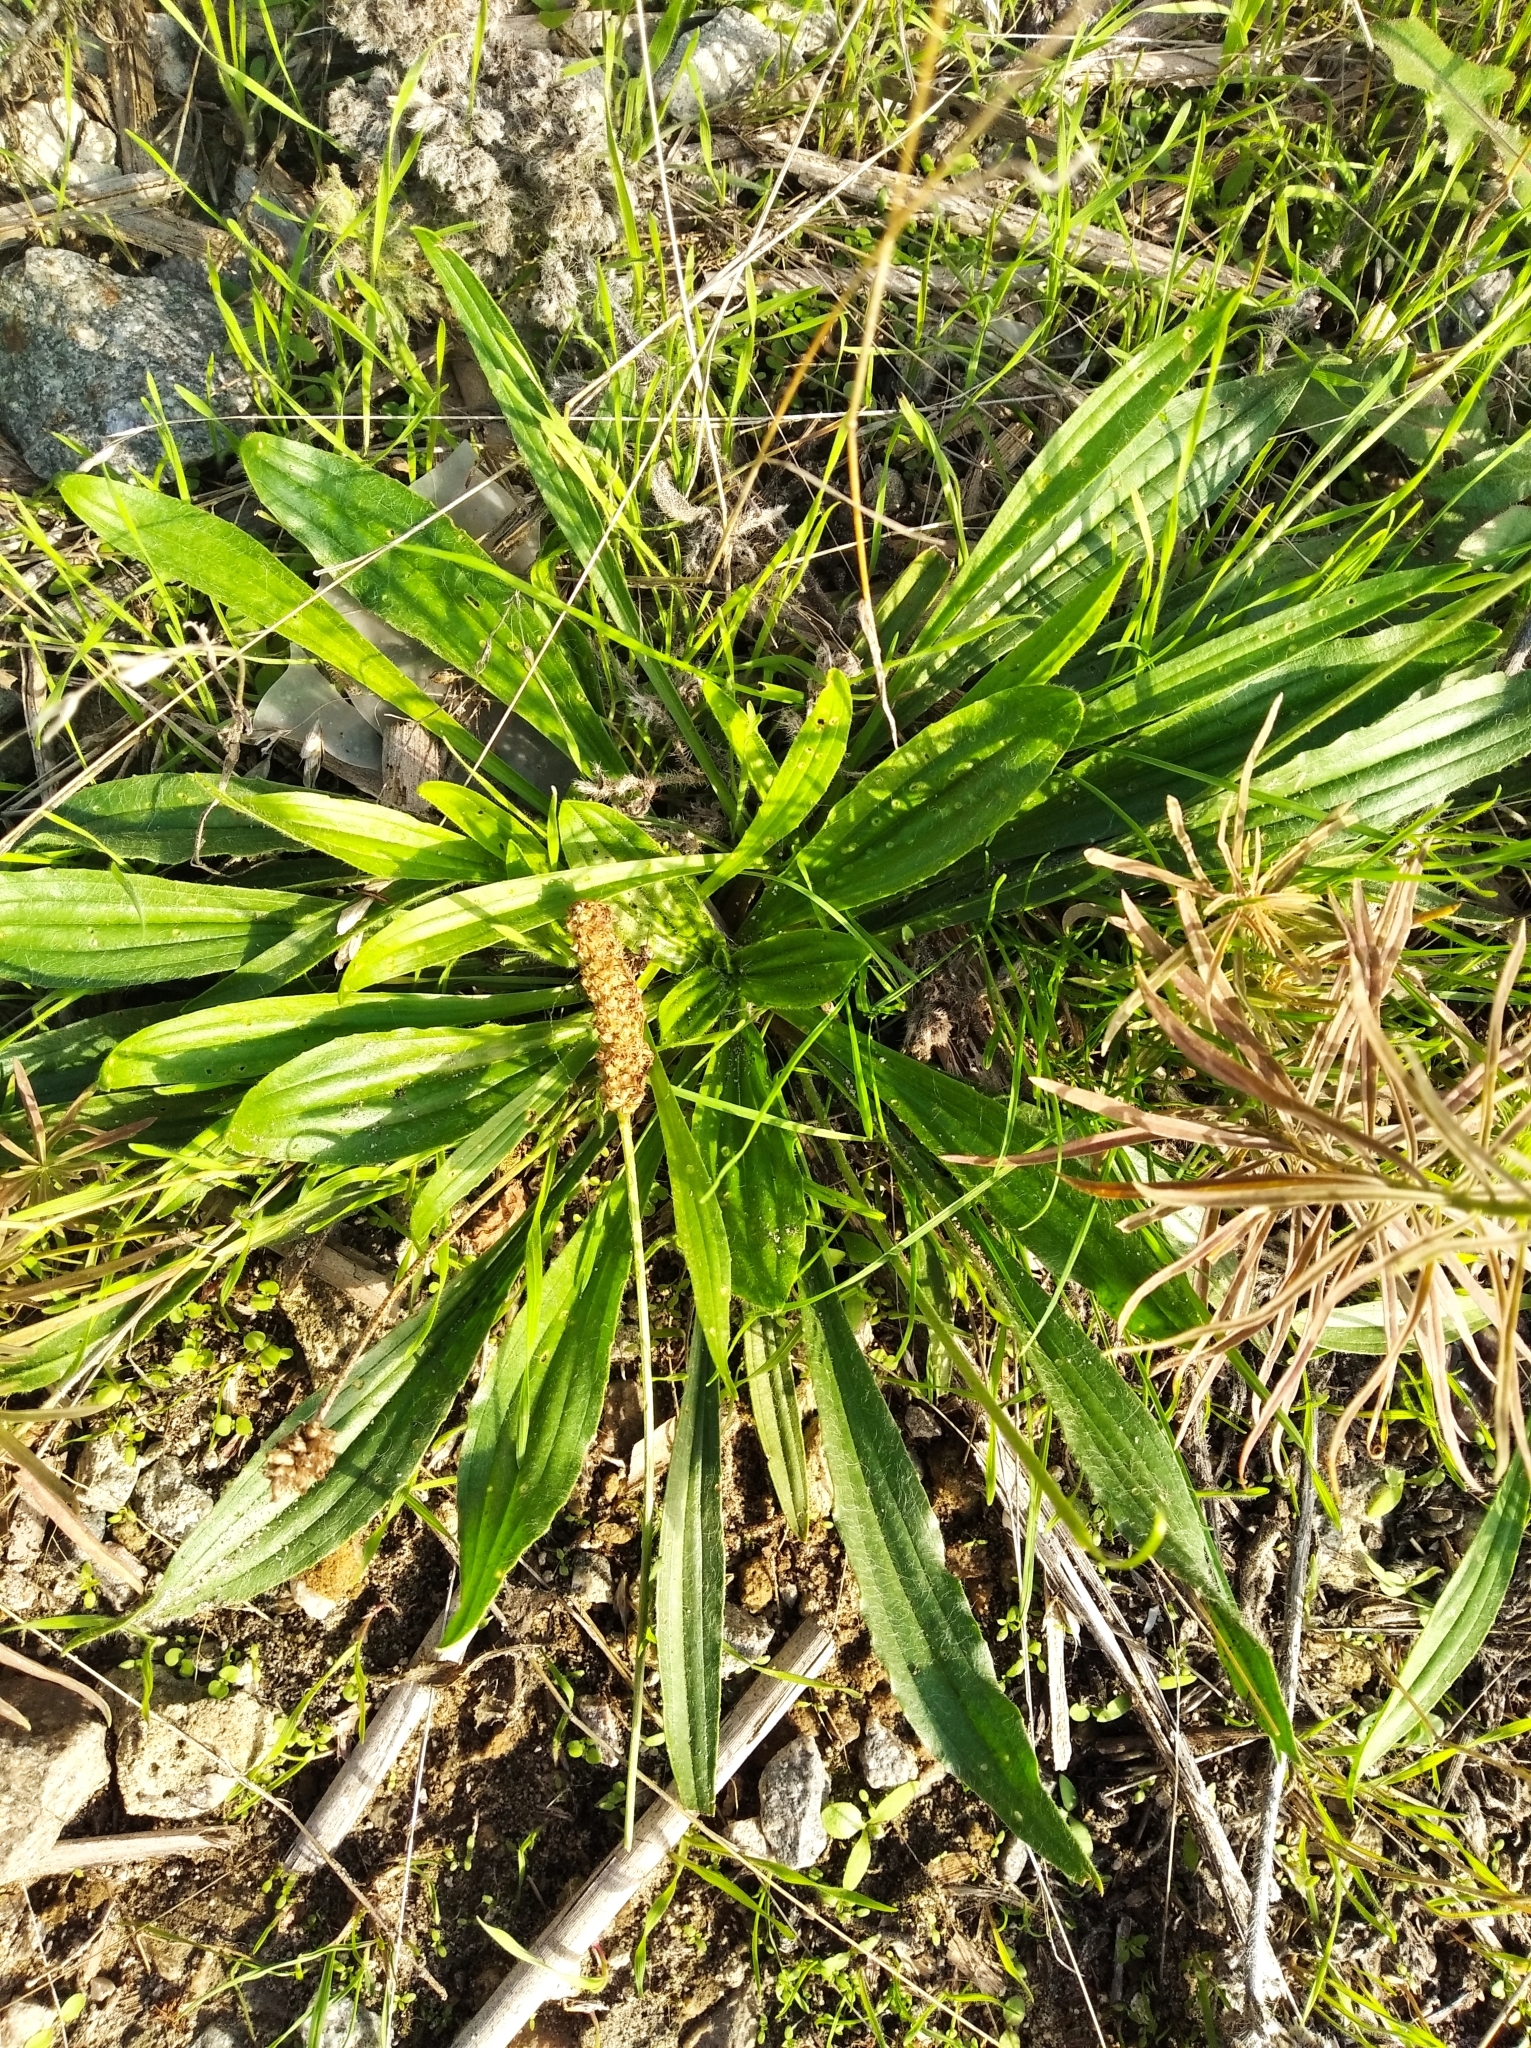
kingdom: Plantae
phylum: Tracheophyta
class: Magnoliopsida
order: Lamiales
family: Plantaginaceae
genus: Plantago
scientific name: Plantago lanceolata
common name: Ribwort plantain
